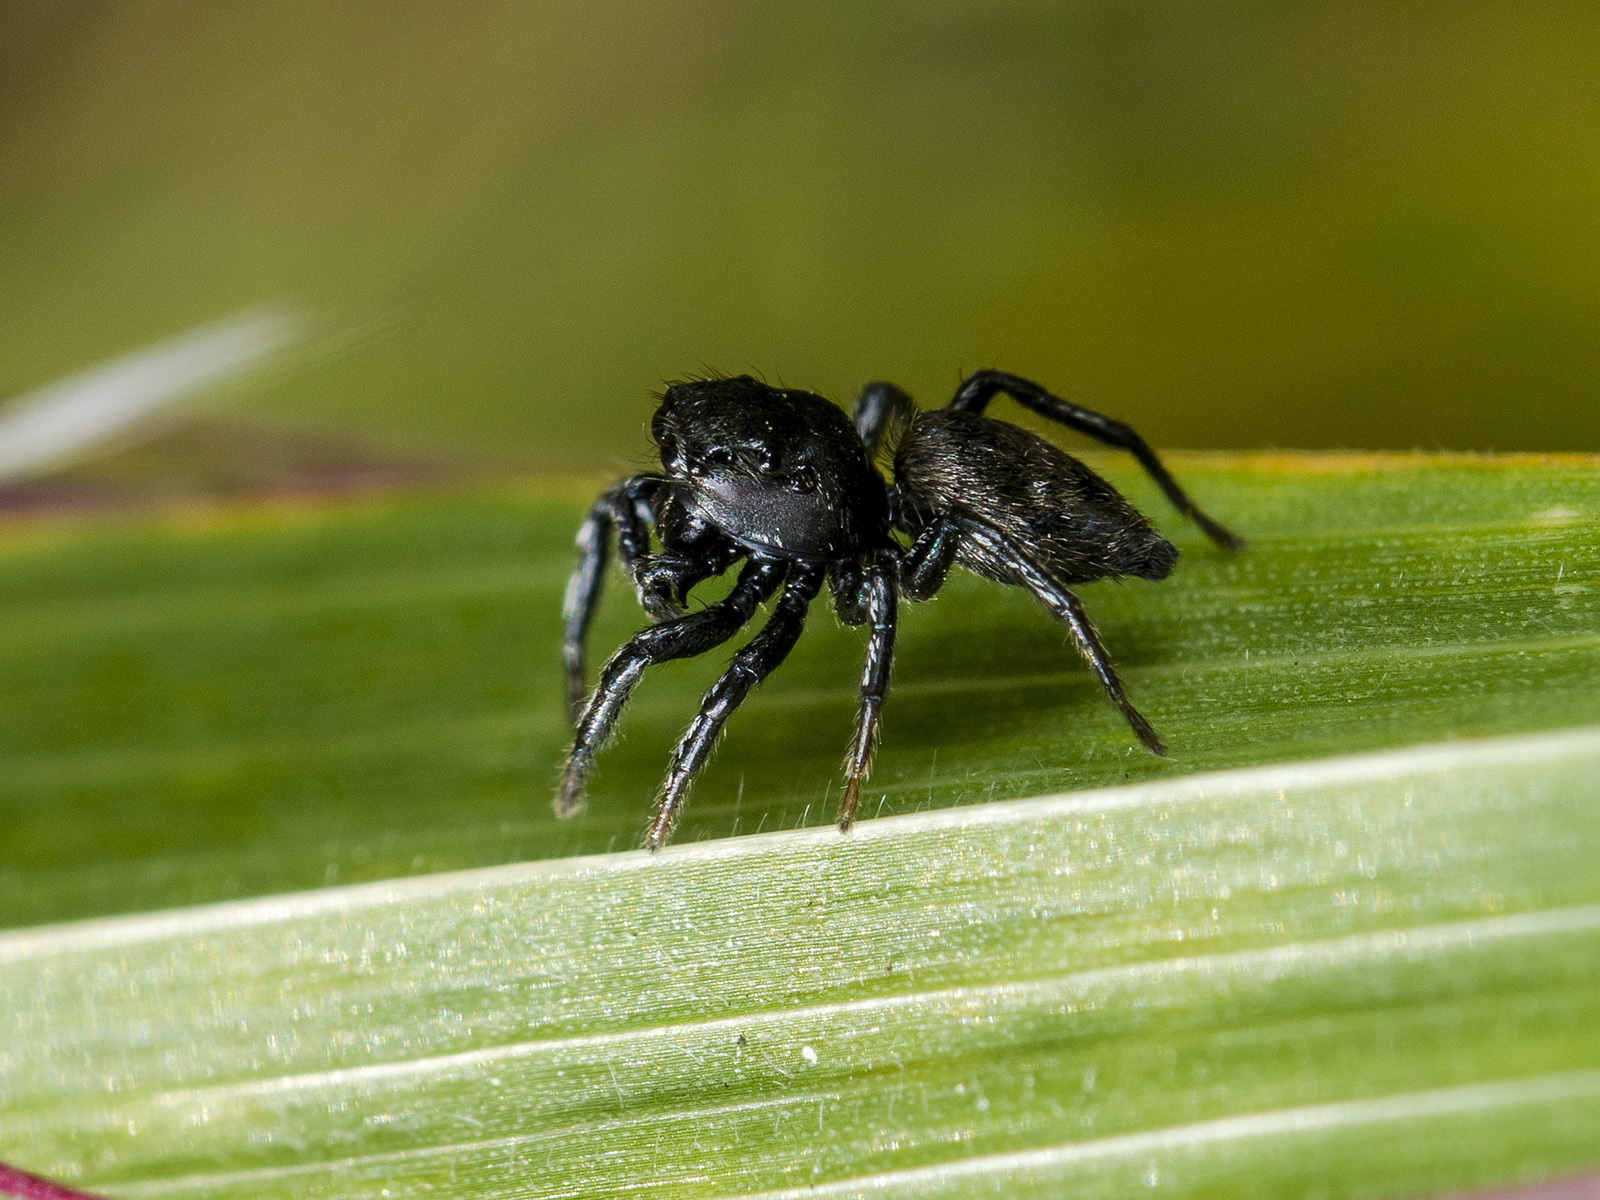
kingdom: Animalia
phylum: Arthropoda
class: Arachnida
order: Araneae
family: Salticidae
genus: Heliophanus
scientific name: Heliophanus potanini
